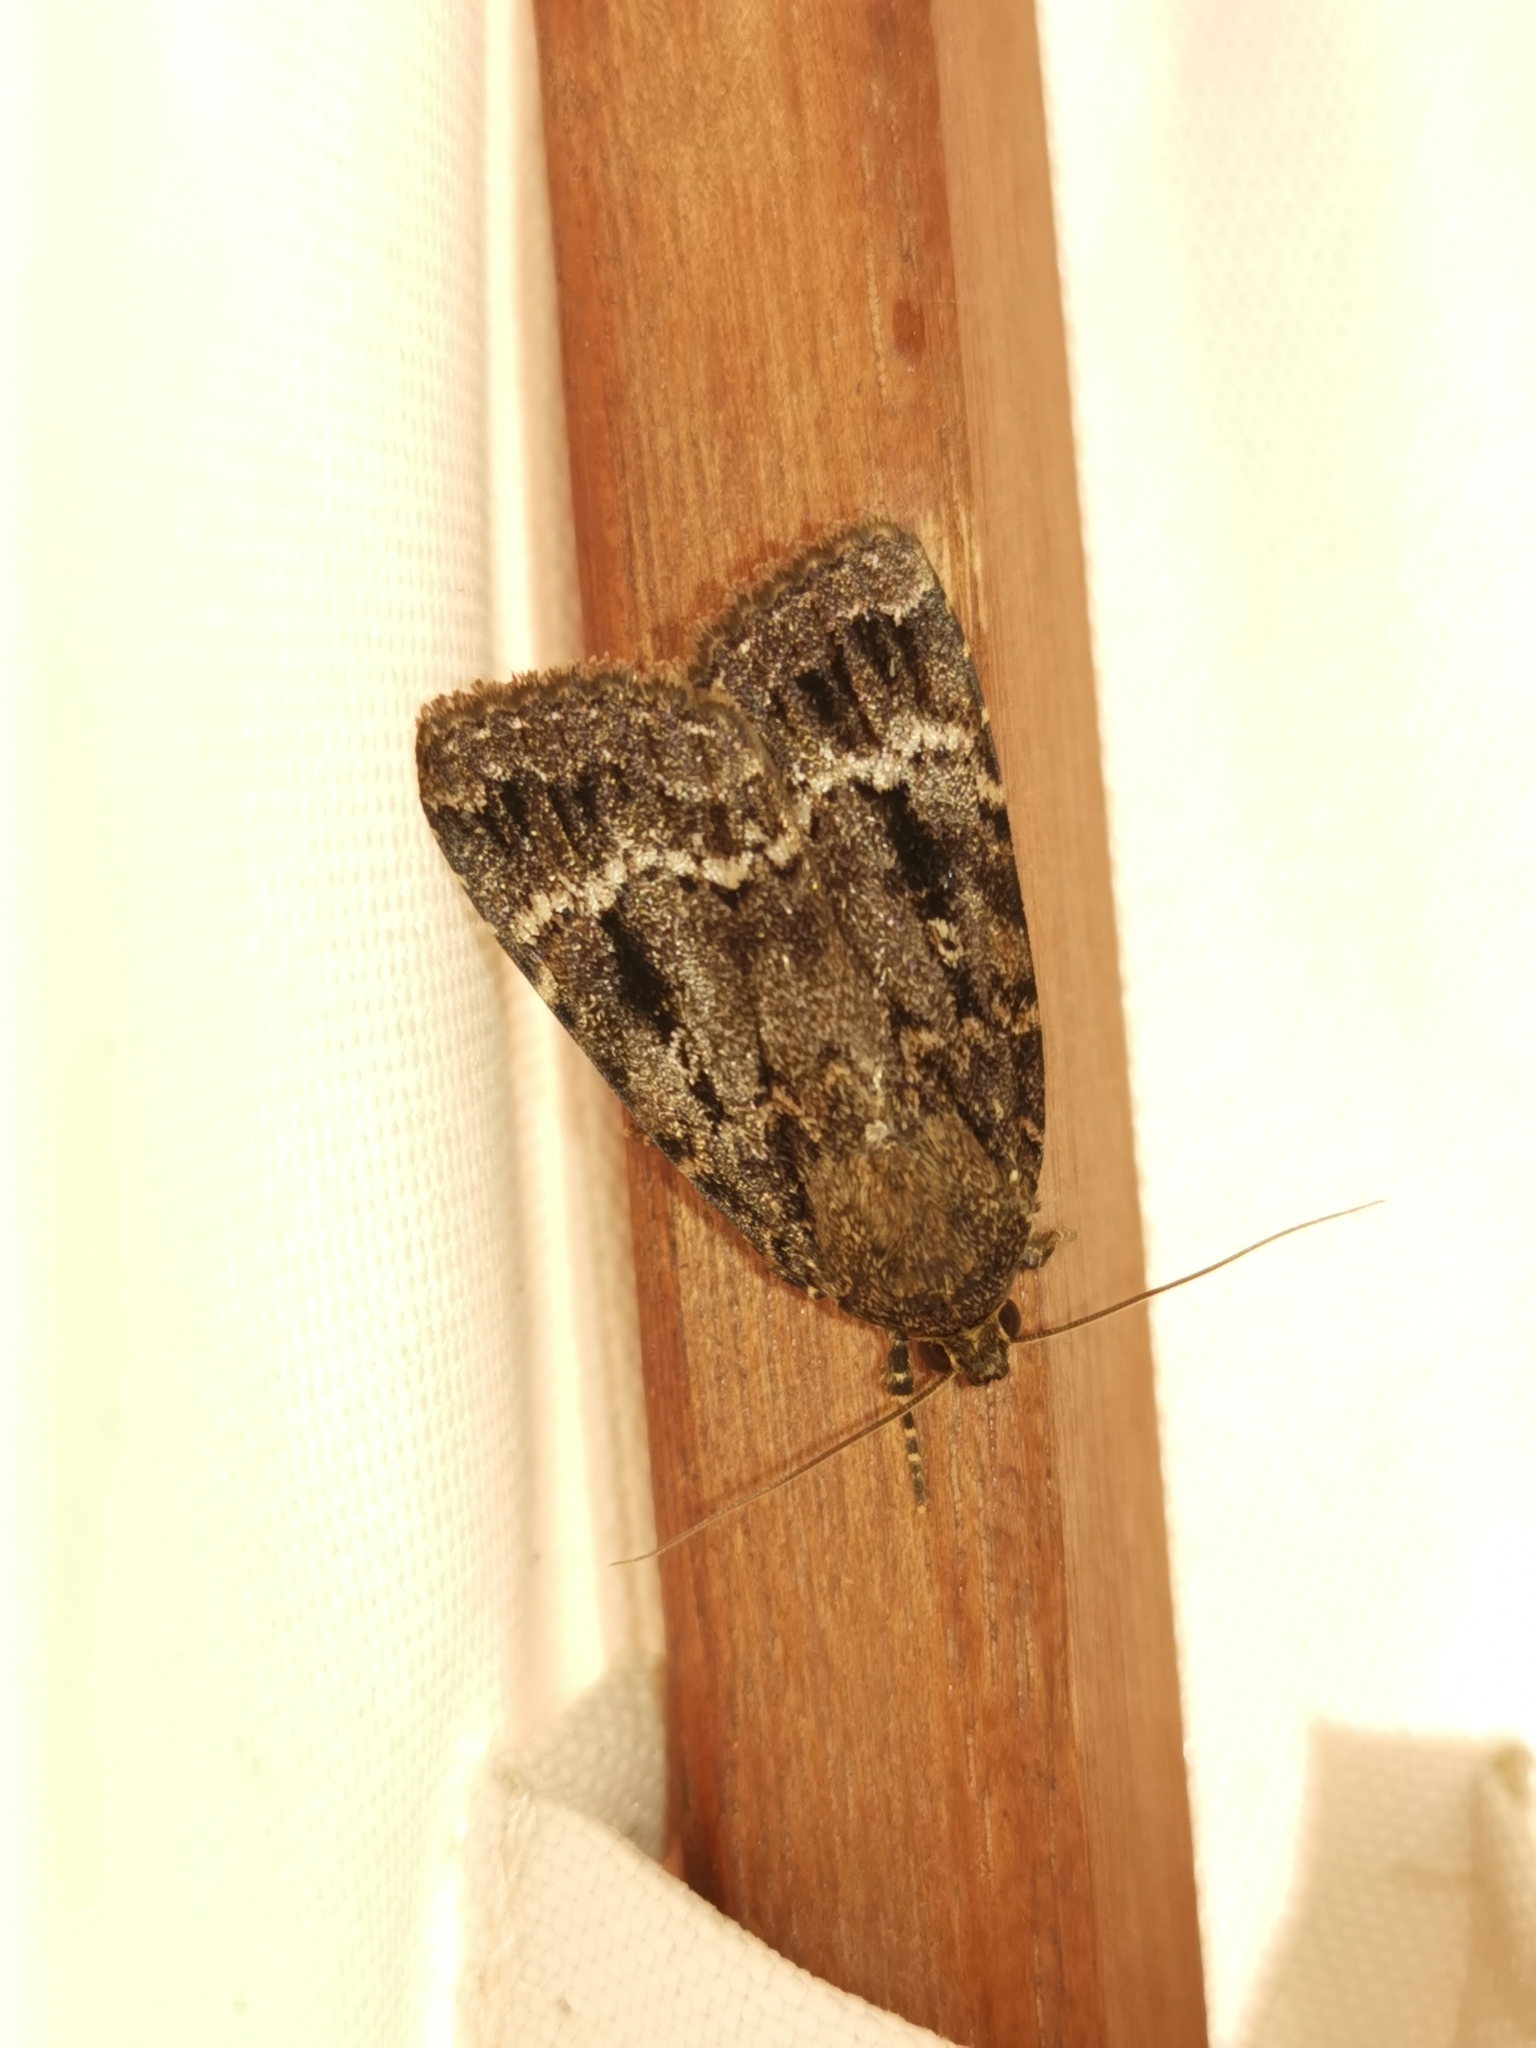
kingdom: Animalia
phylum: Arthropoda
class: Insecta
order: Lepidoptera
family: Noctuidae
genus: Amphipyra
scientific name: Amphipyra pyramidea
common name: Copper underwing
